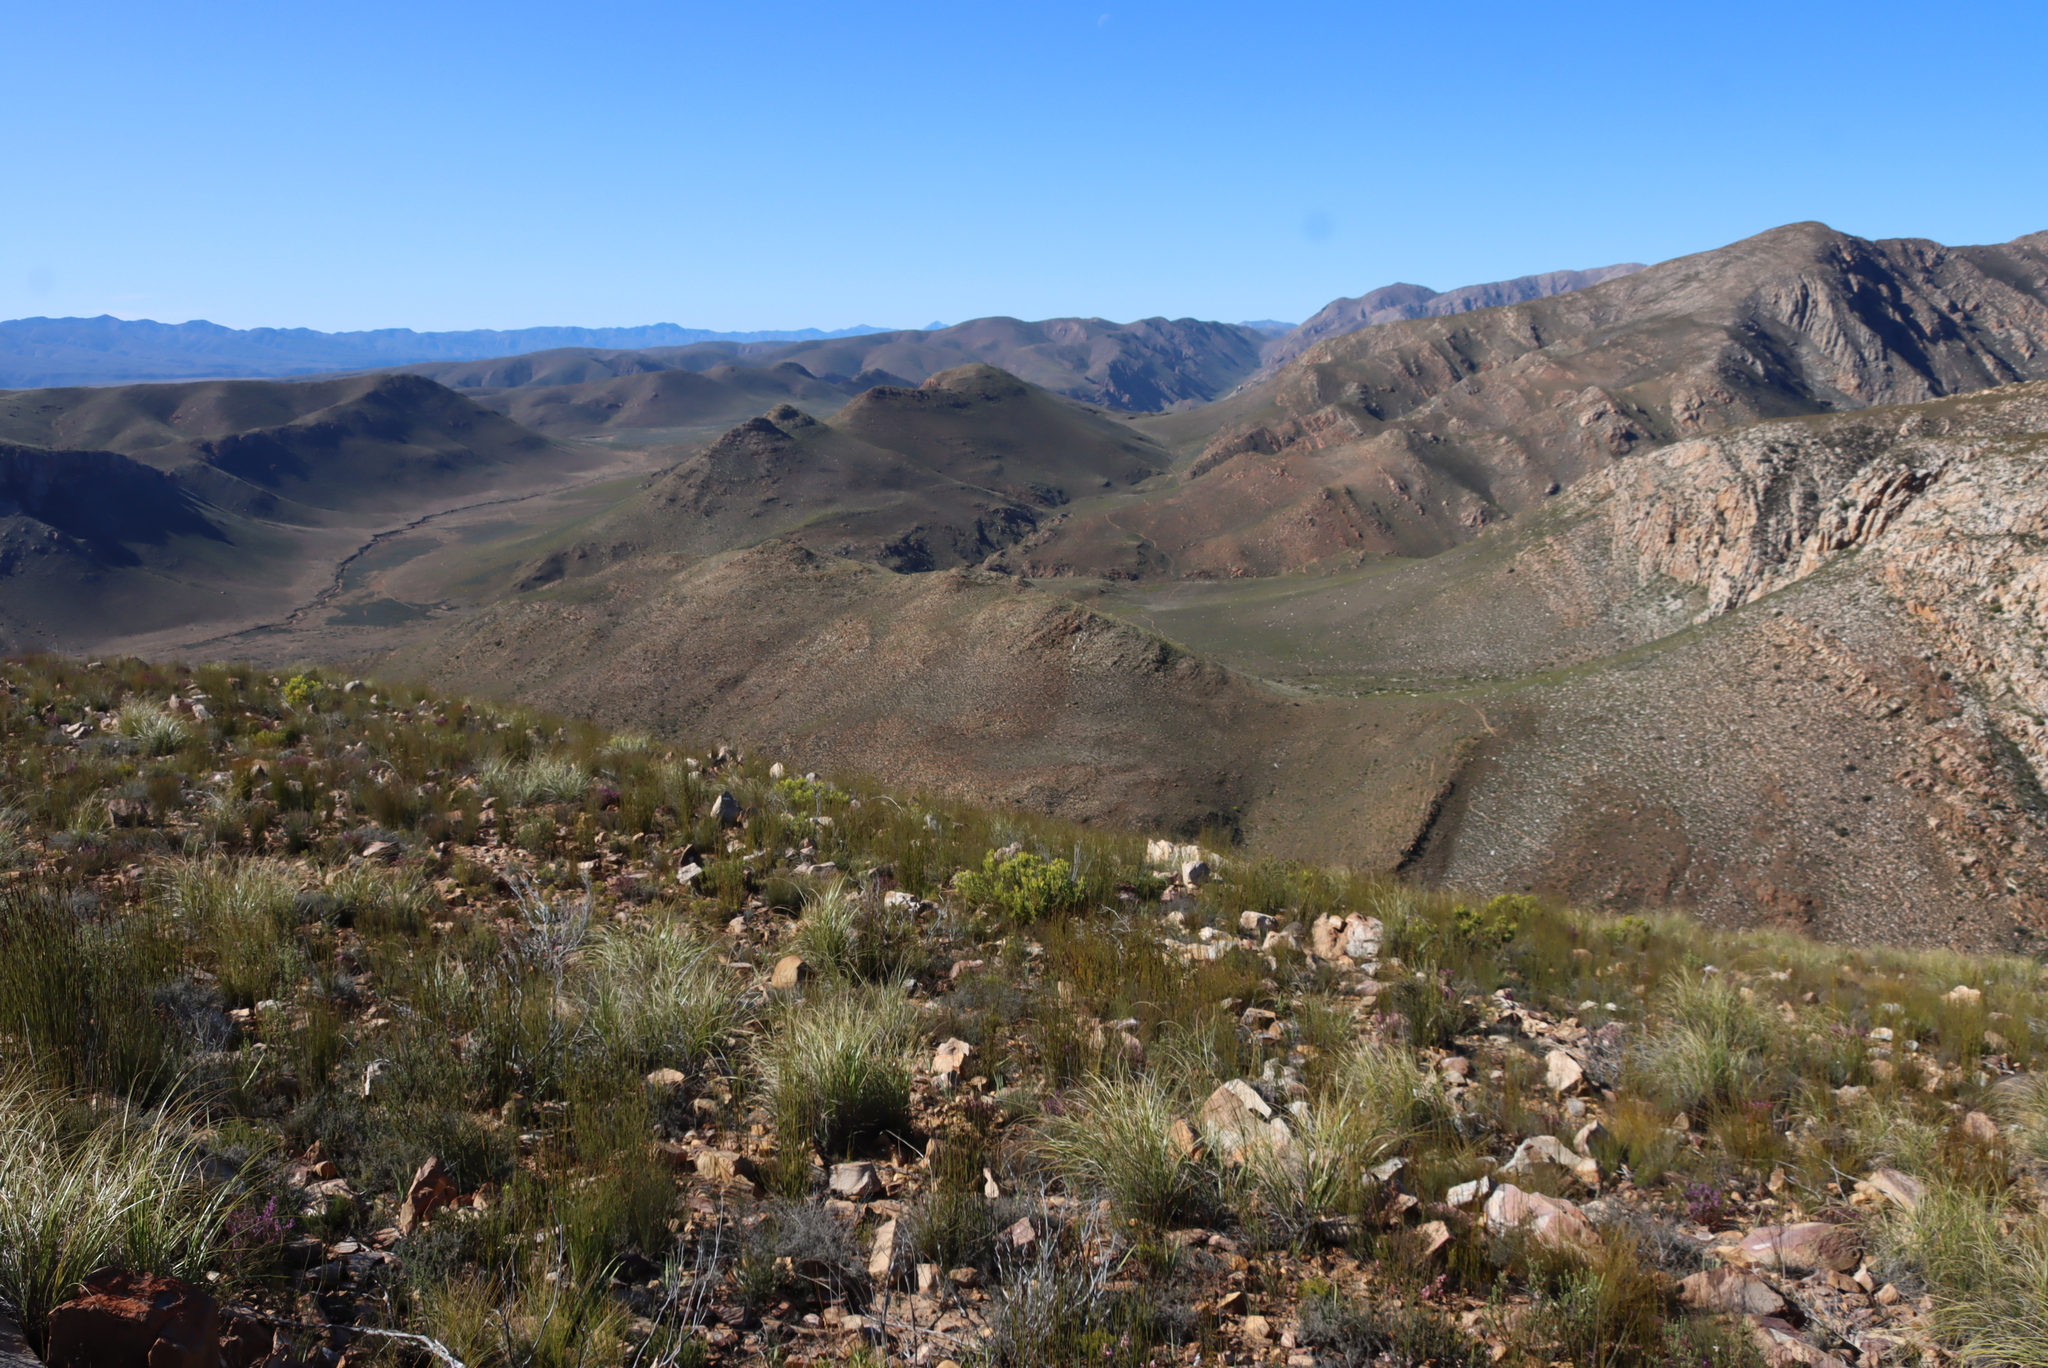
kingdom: Plantae
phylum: Tracheophyta
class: Magnoliopsida
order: Proteales
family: Proteaceae
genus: Leucadendron
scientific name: Leucadendron salignum
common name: Common sunshine conebush
